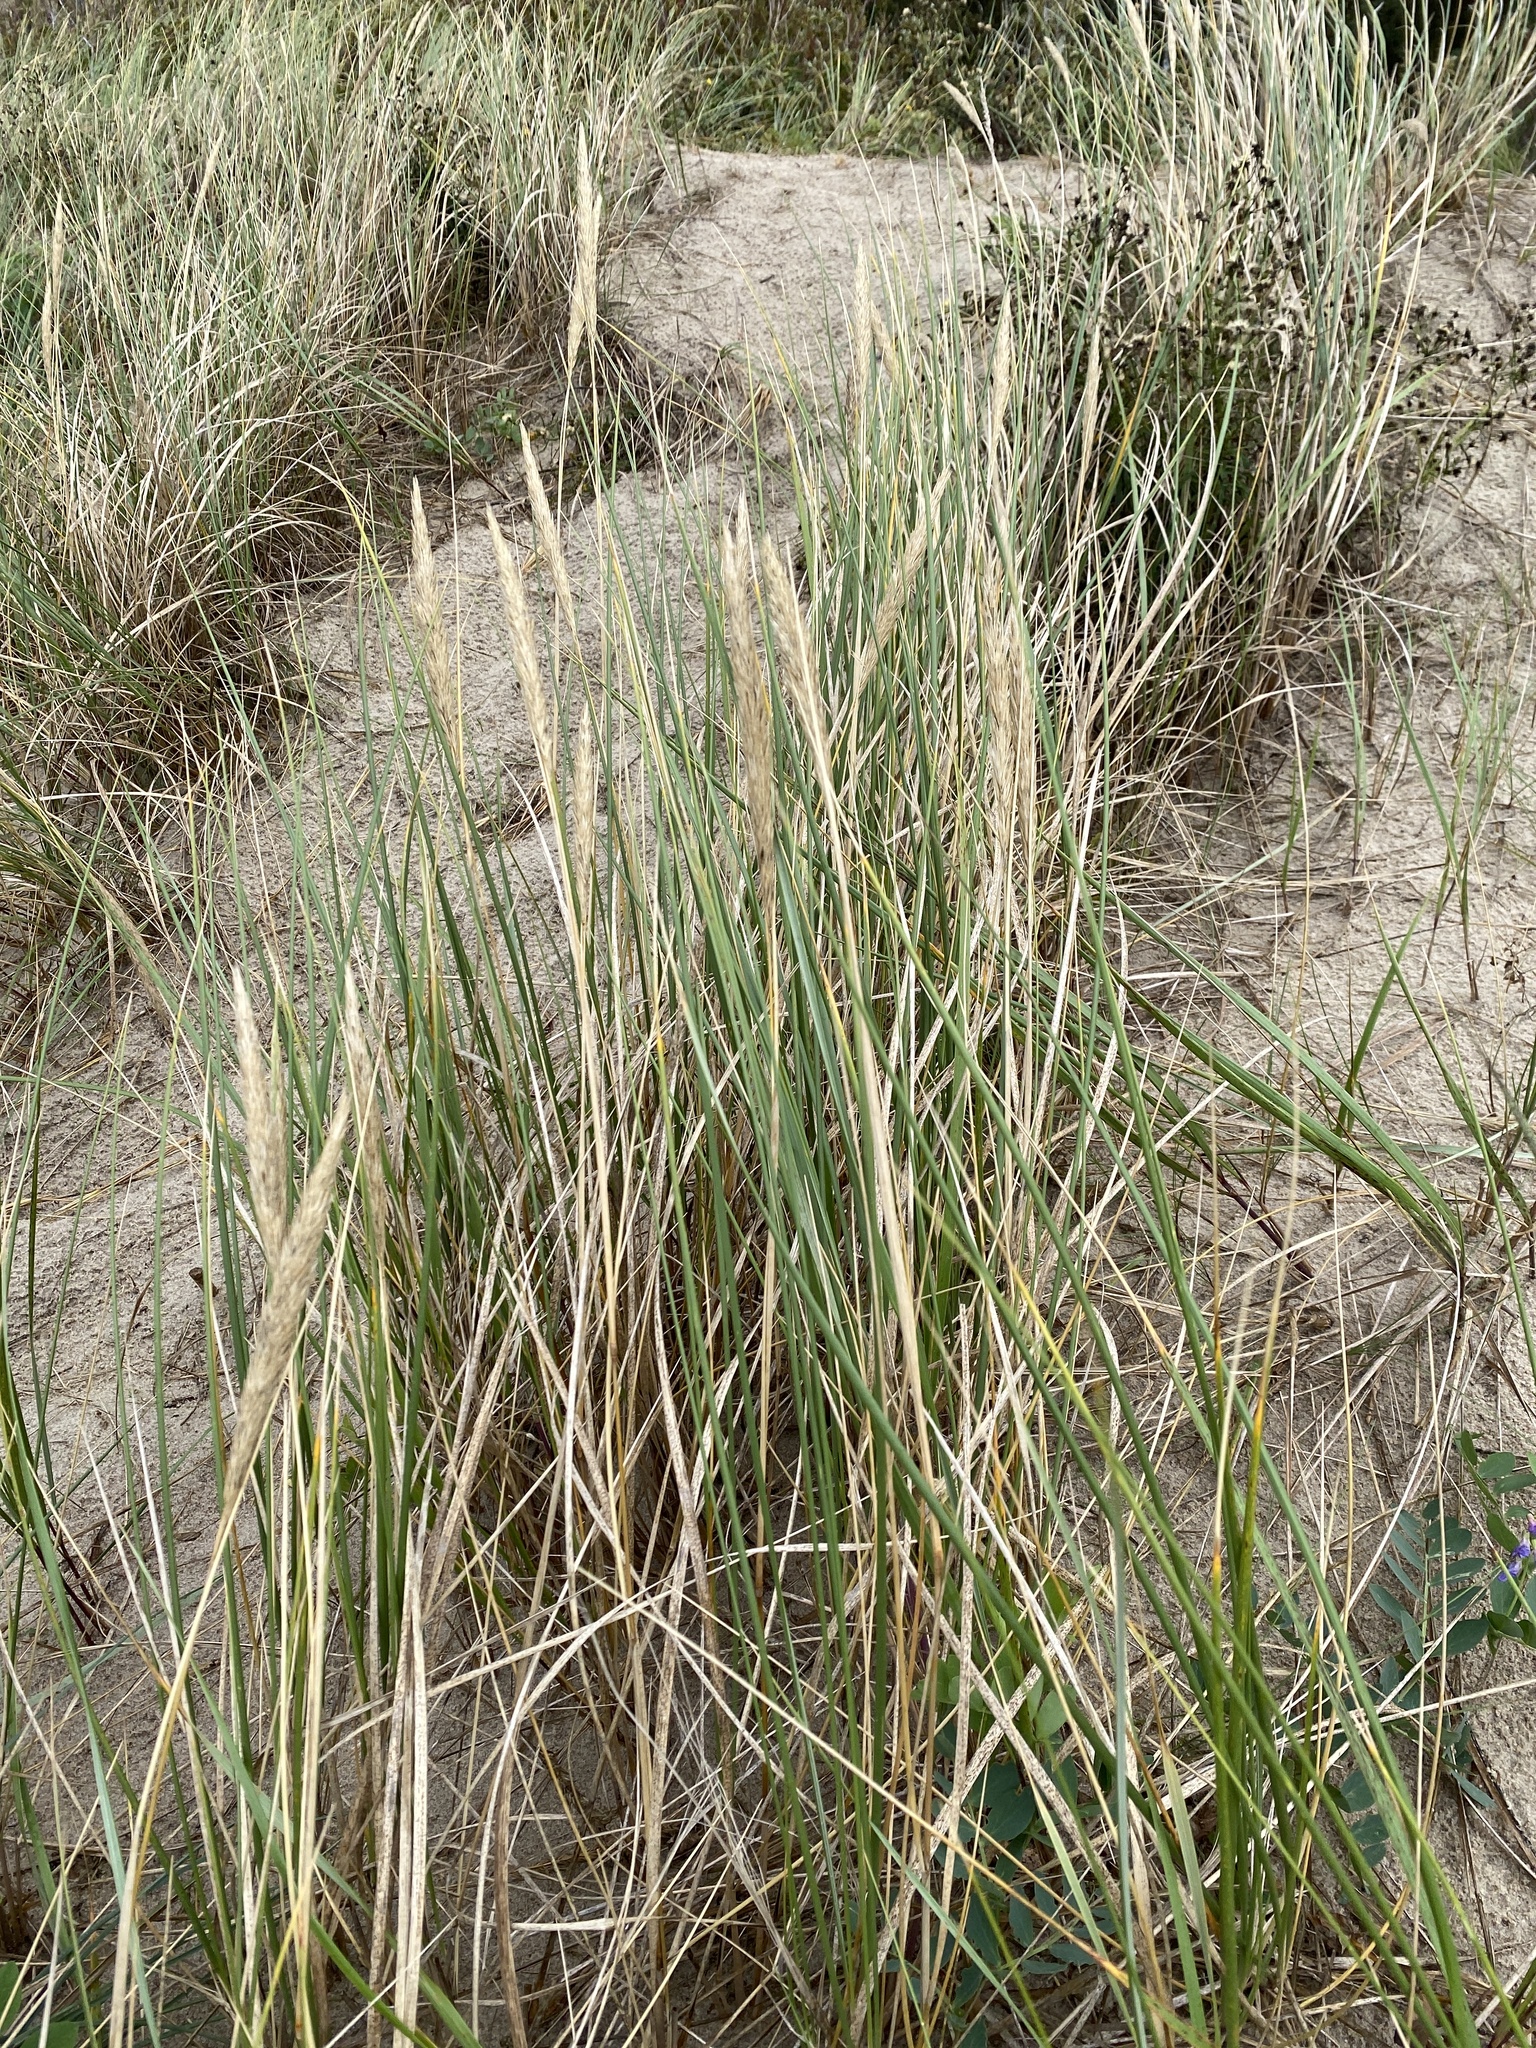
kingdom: Plantae
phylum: Tracheophyta
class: Liliopsida
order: Poales
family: Poaceae
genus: Calamagrostis
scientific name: Calamagrostis arenaria
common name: European beachgrass
